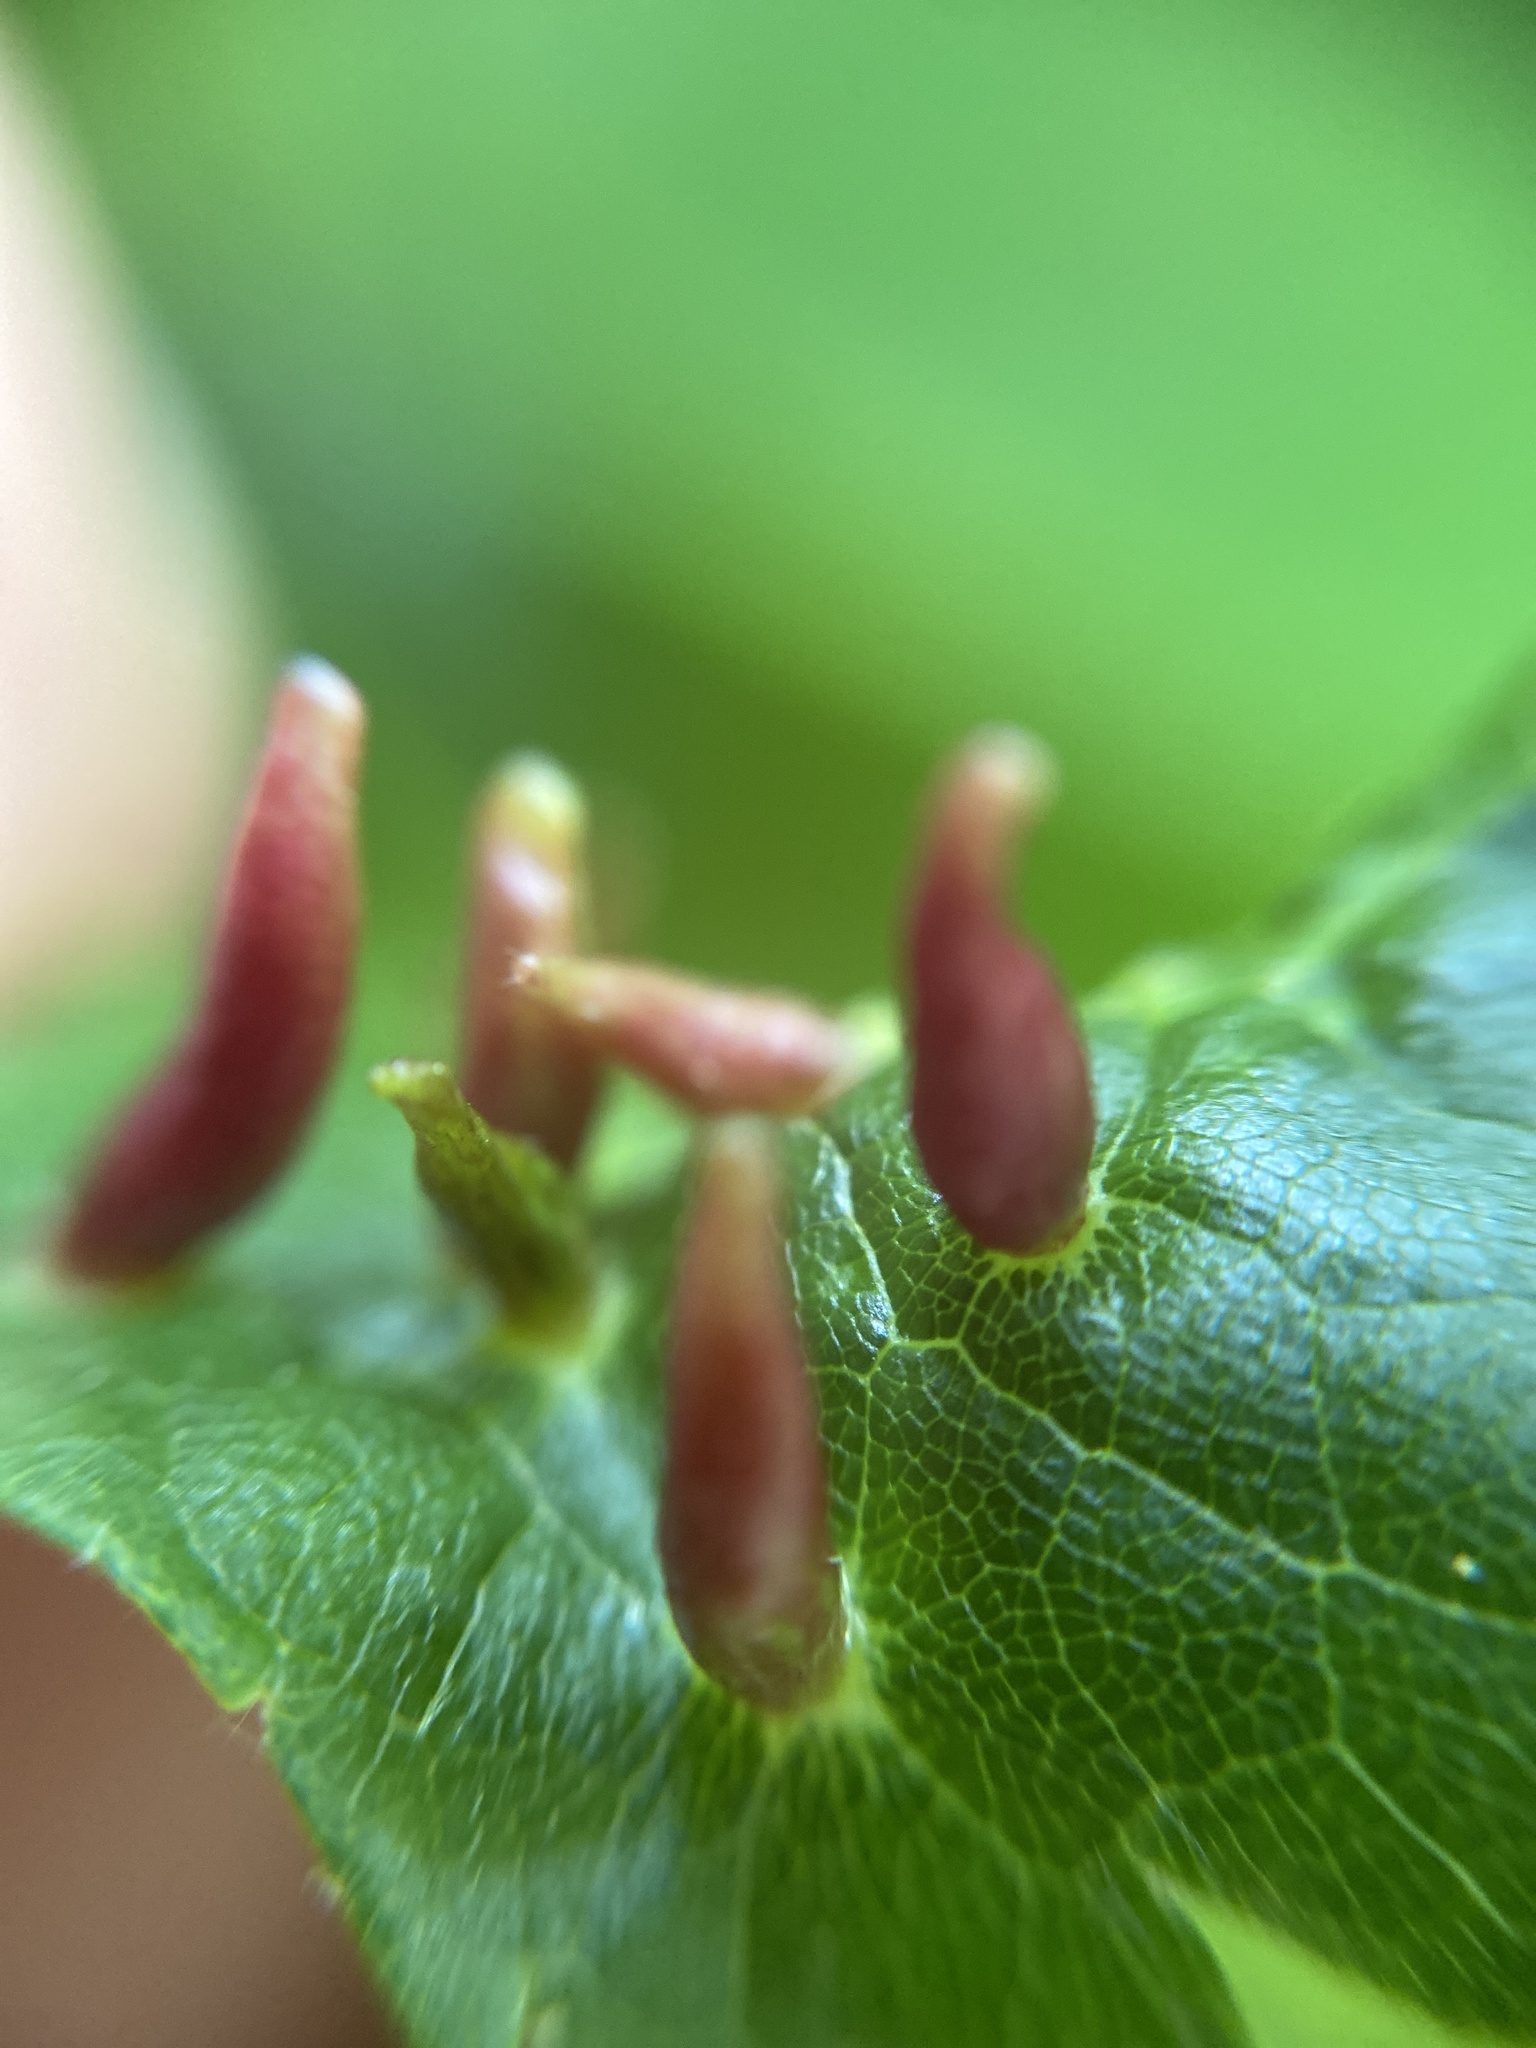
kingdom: Animalia
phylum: Arthropoda
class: Arachnida
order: Trombidiformes
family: Eriophyidae
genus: Eriophyes
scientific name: Eriophyes tiliae
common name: Red nail gall mite
